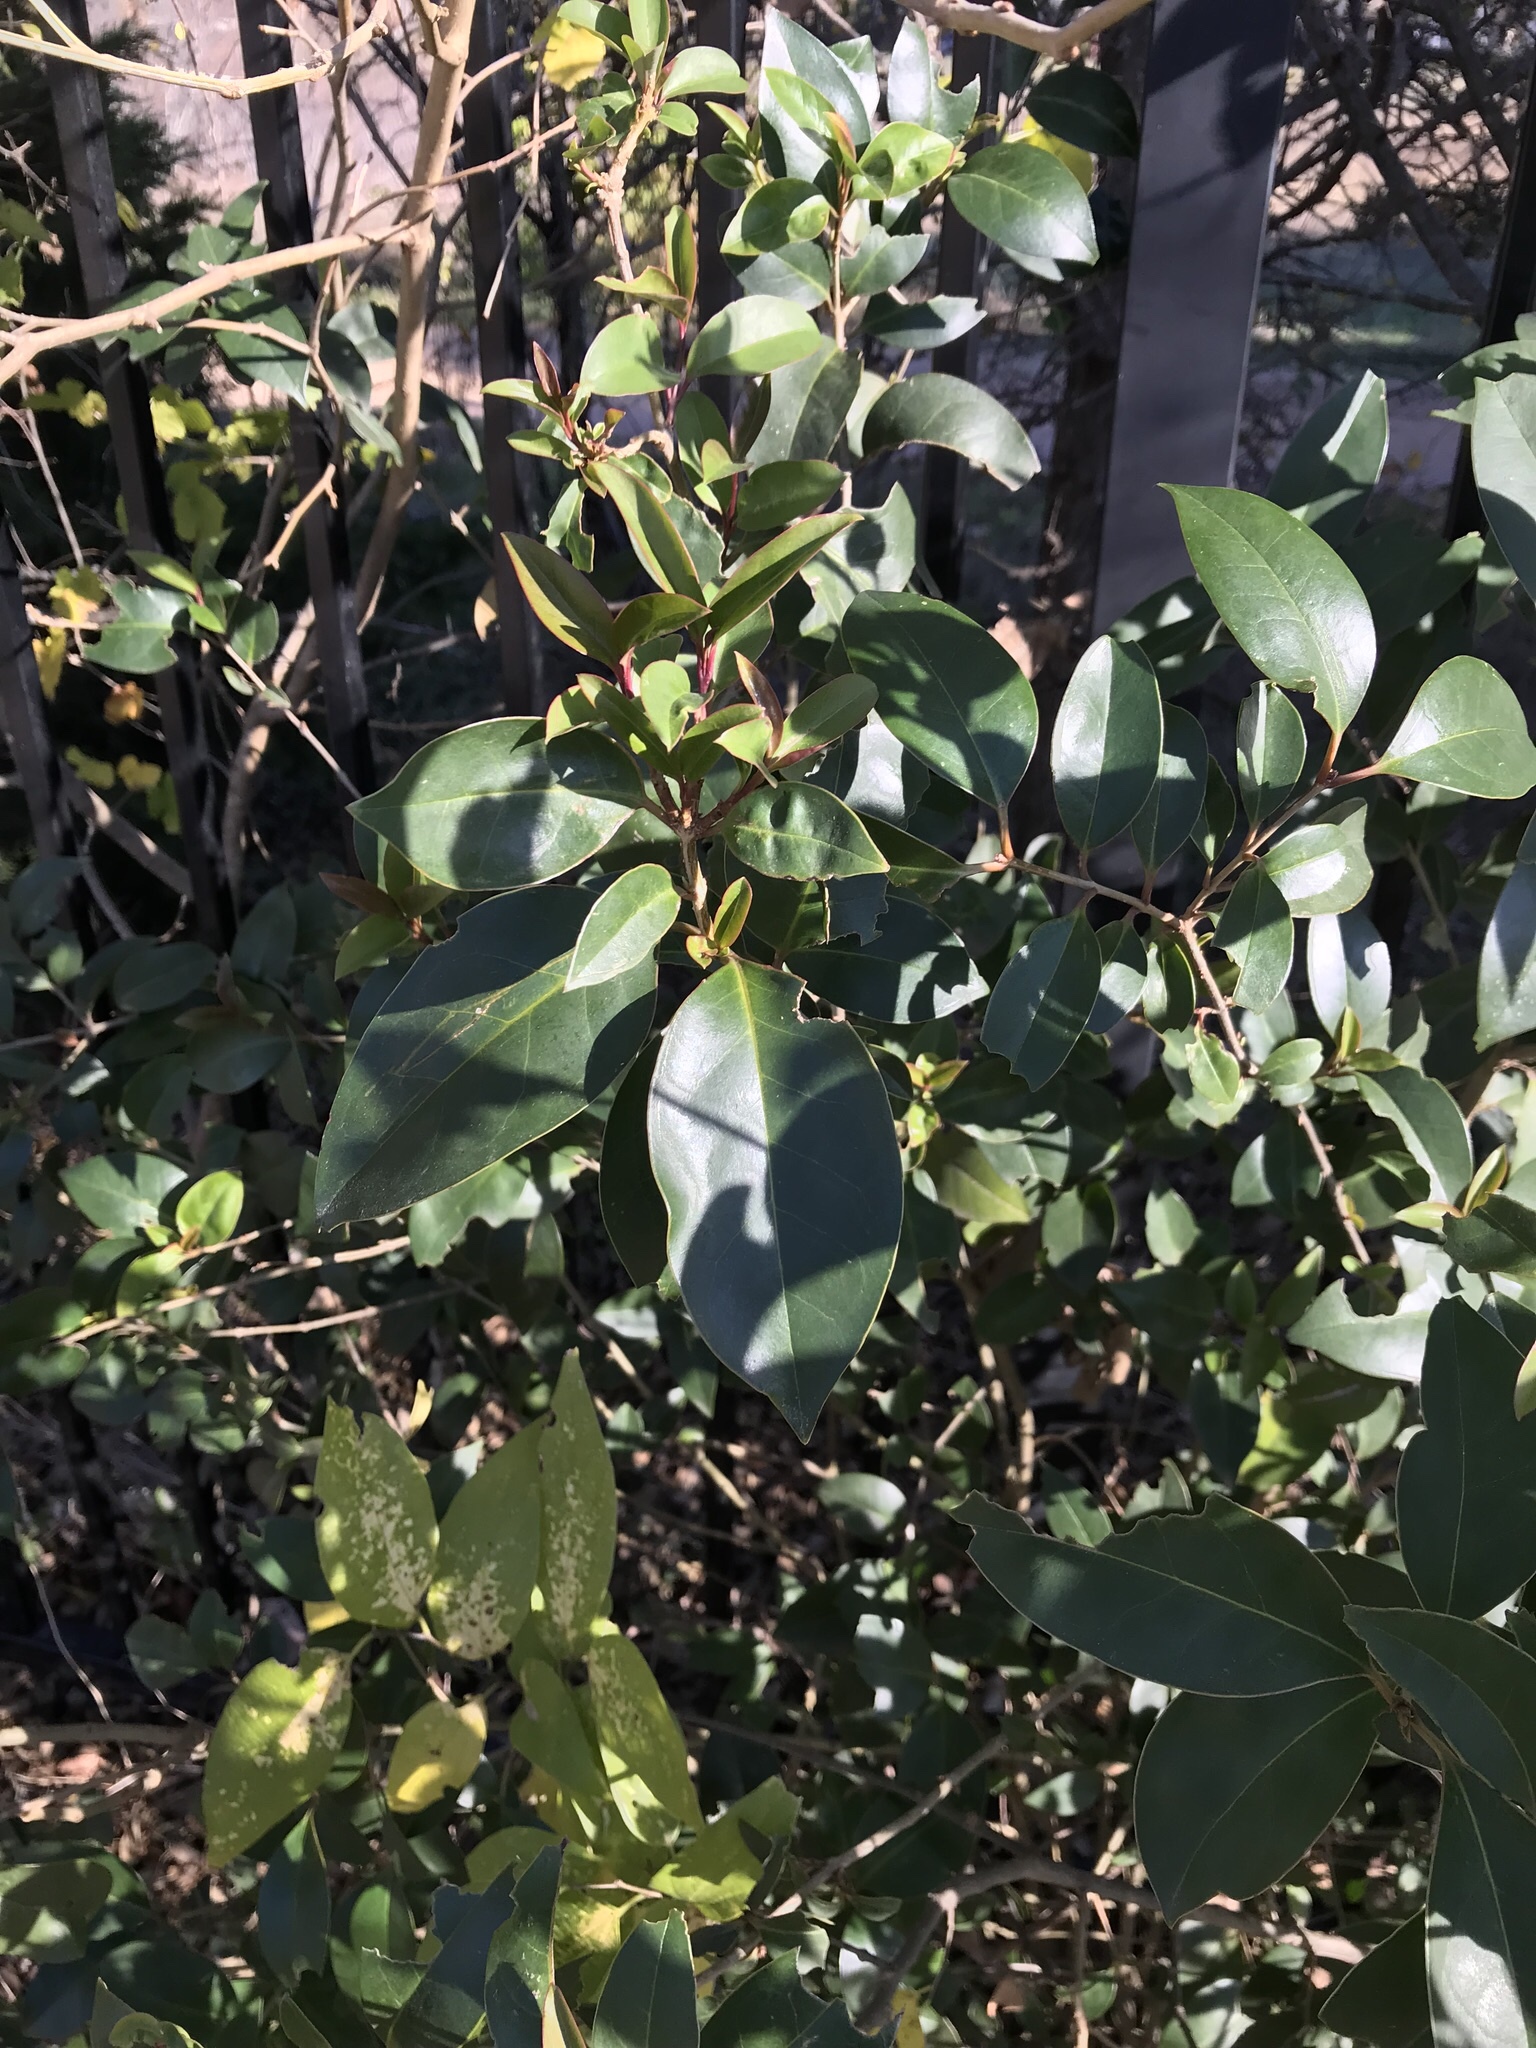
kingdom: Plantae
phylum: Tracheophyta
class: Magnoliopsida
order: Lamiales
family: Oleaceae
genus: Ligustrum
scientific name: Ligustrum lucidum
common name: Glossy privet
